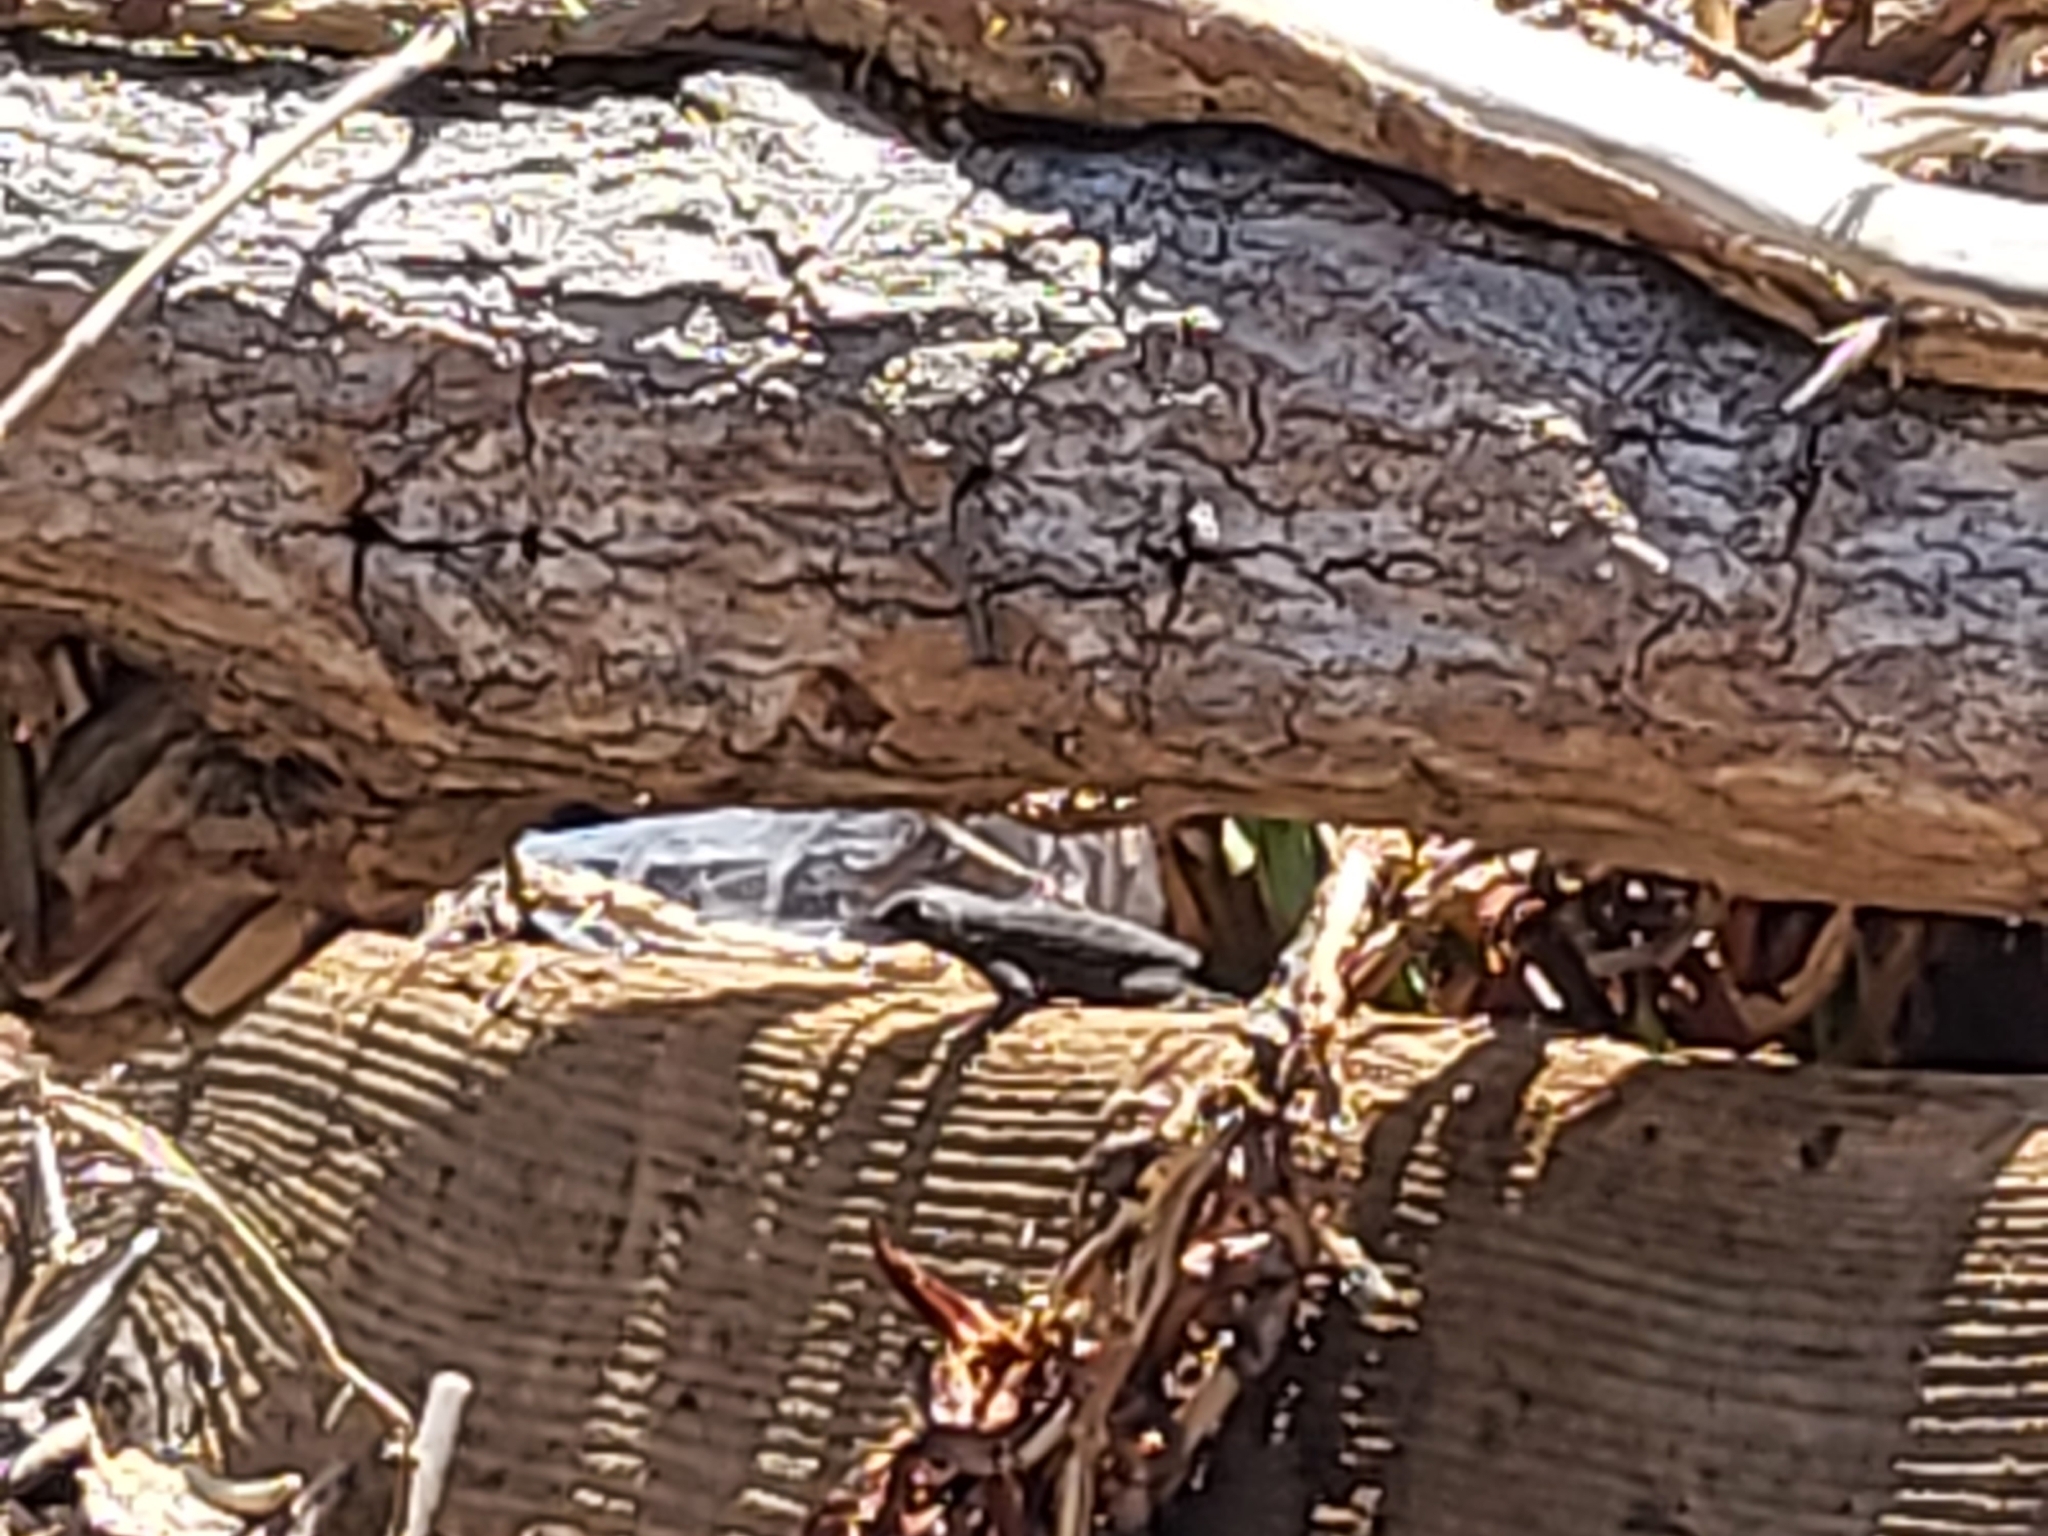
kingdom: Animalia
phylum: Chordata
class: Squamata
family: Phrynosomatidae
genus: Sceloporus
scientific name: Sceloporus occidentalis
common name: Western fence lizard
